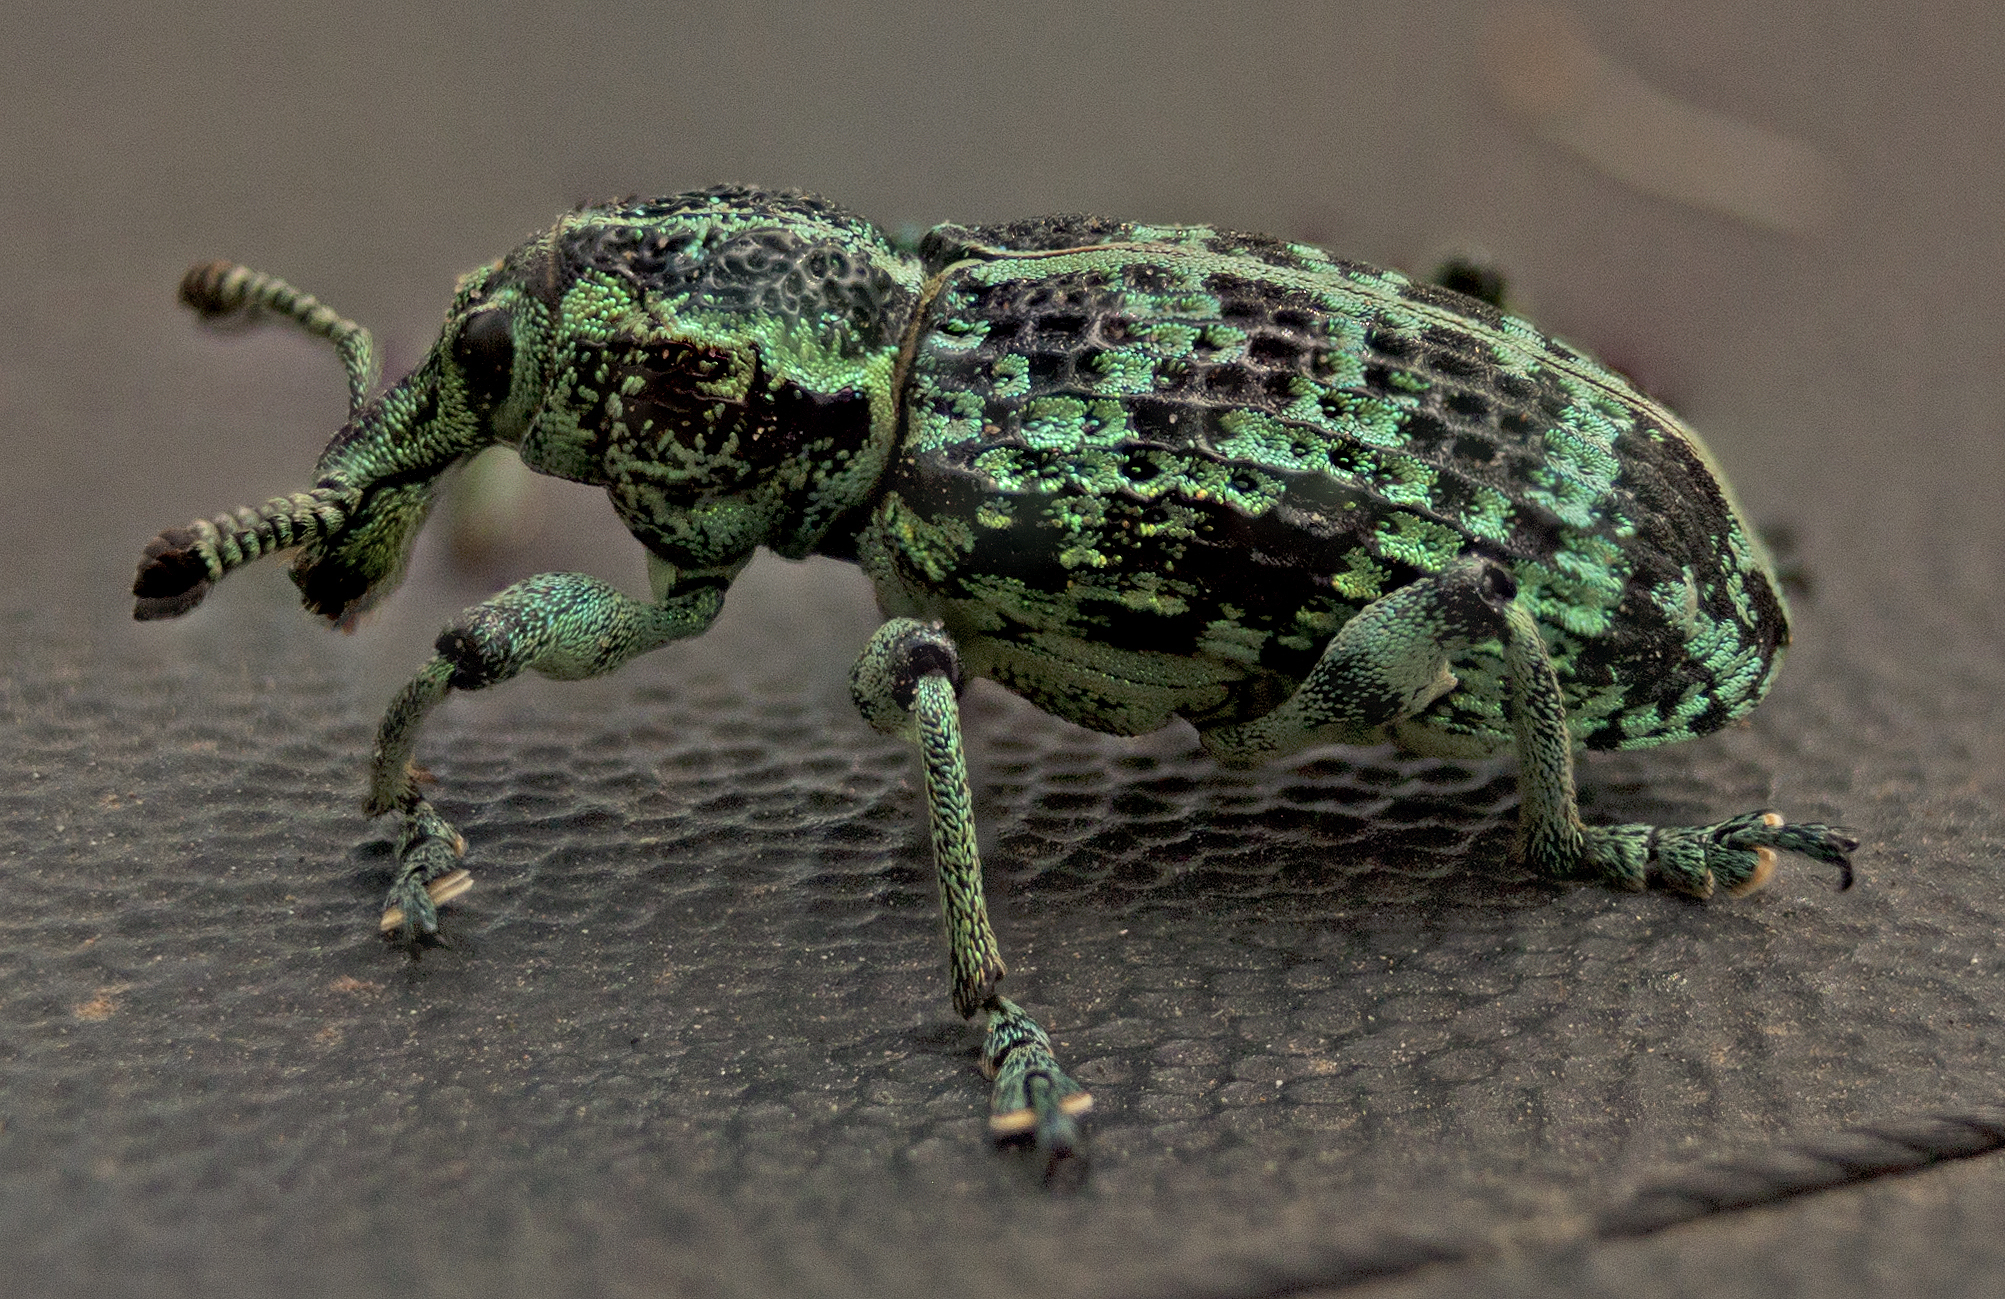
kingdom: Animalia
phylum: Arthropoda
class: Insecta
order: Coleoptera
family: Curculionidae
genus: Chrysolopus
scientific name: Chrysolopus spectabilis
